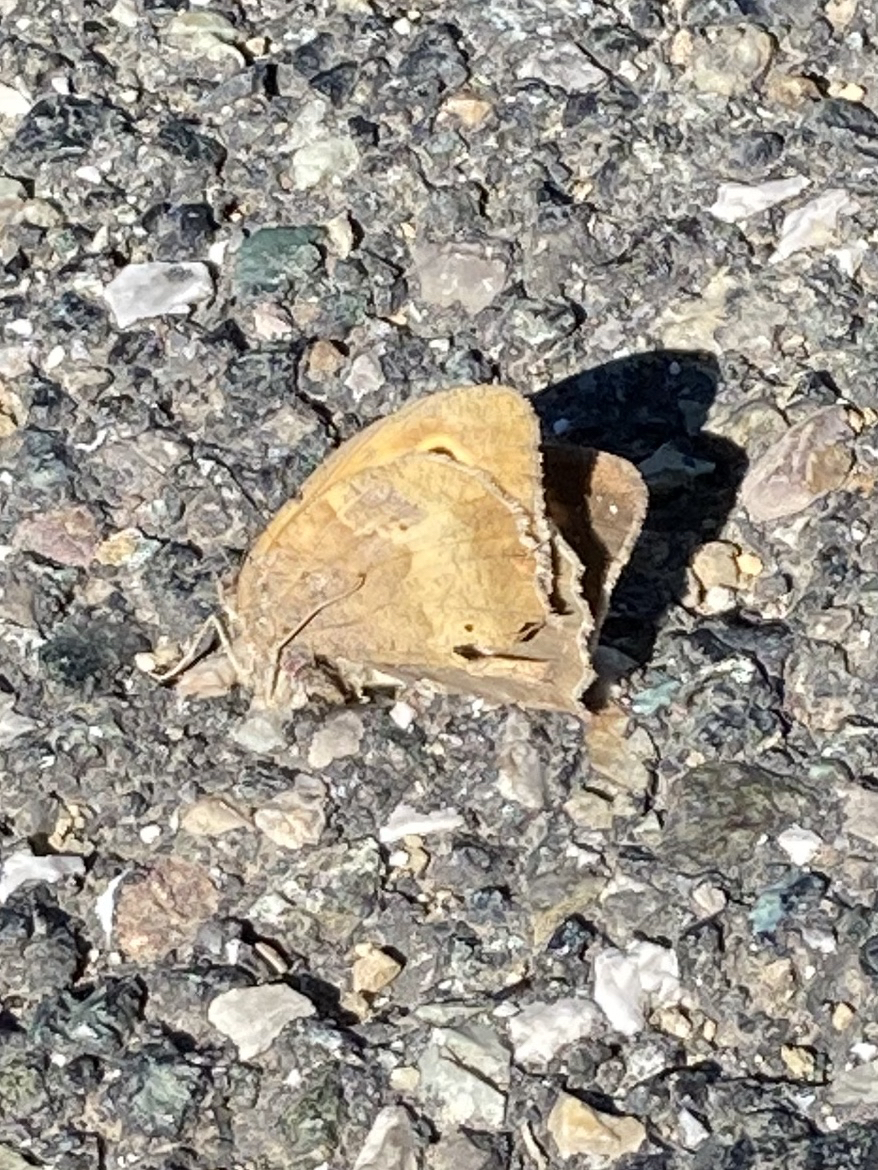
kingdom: Animalia
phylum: Arthropoda
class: Insecta
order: Lepidoptera
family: Nymphalidae
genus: Maniola
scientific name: Maniola jurtina
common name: Meadow brown
